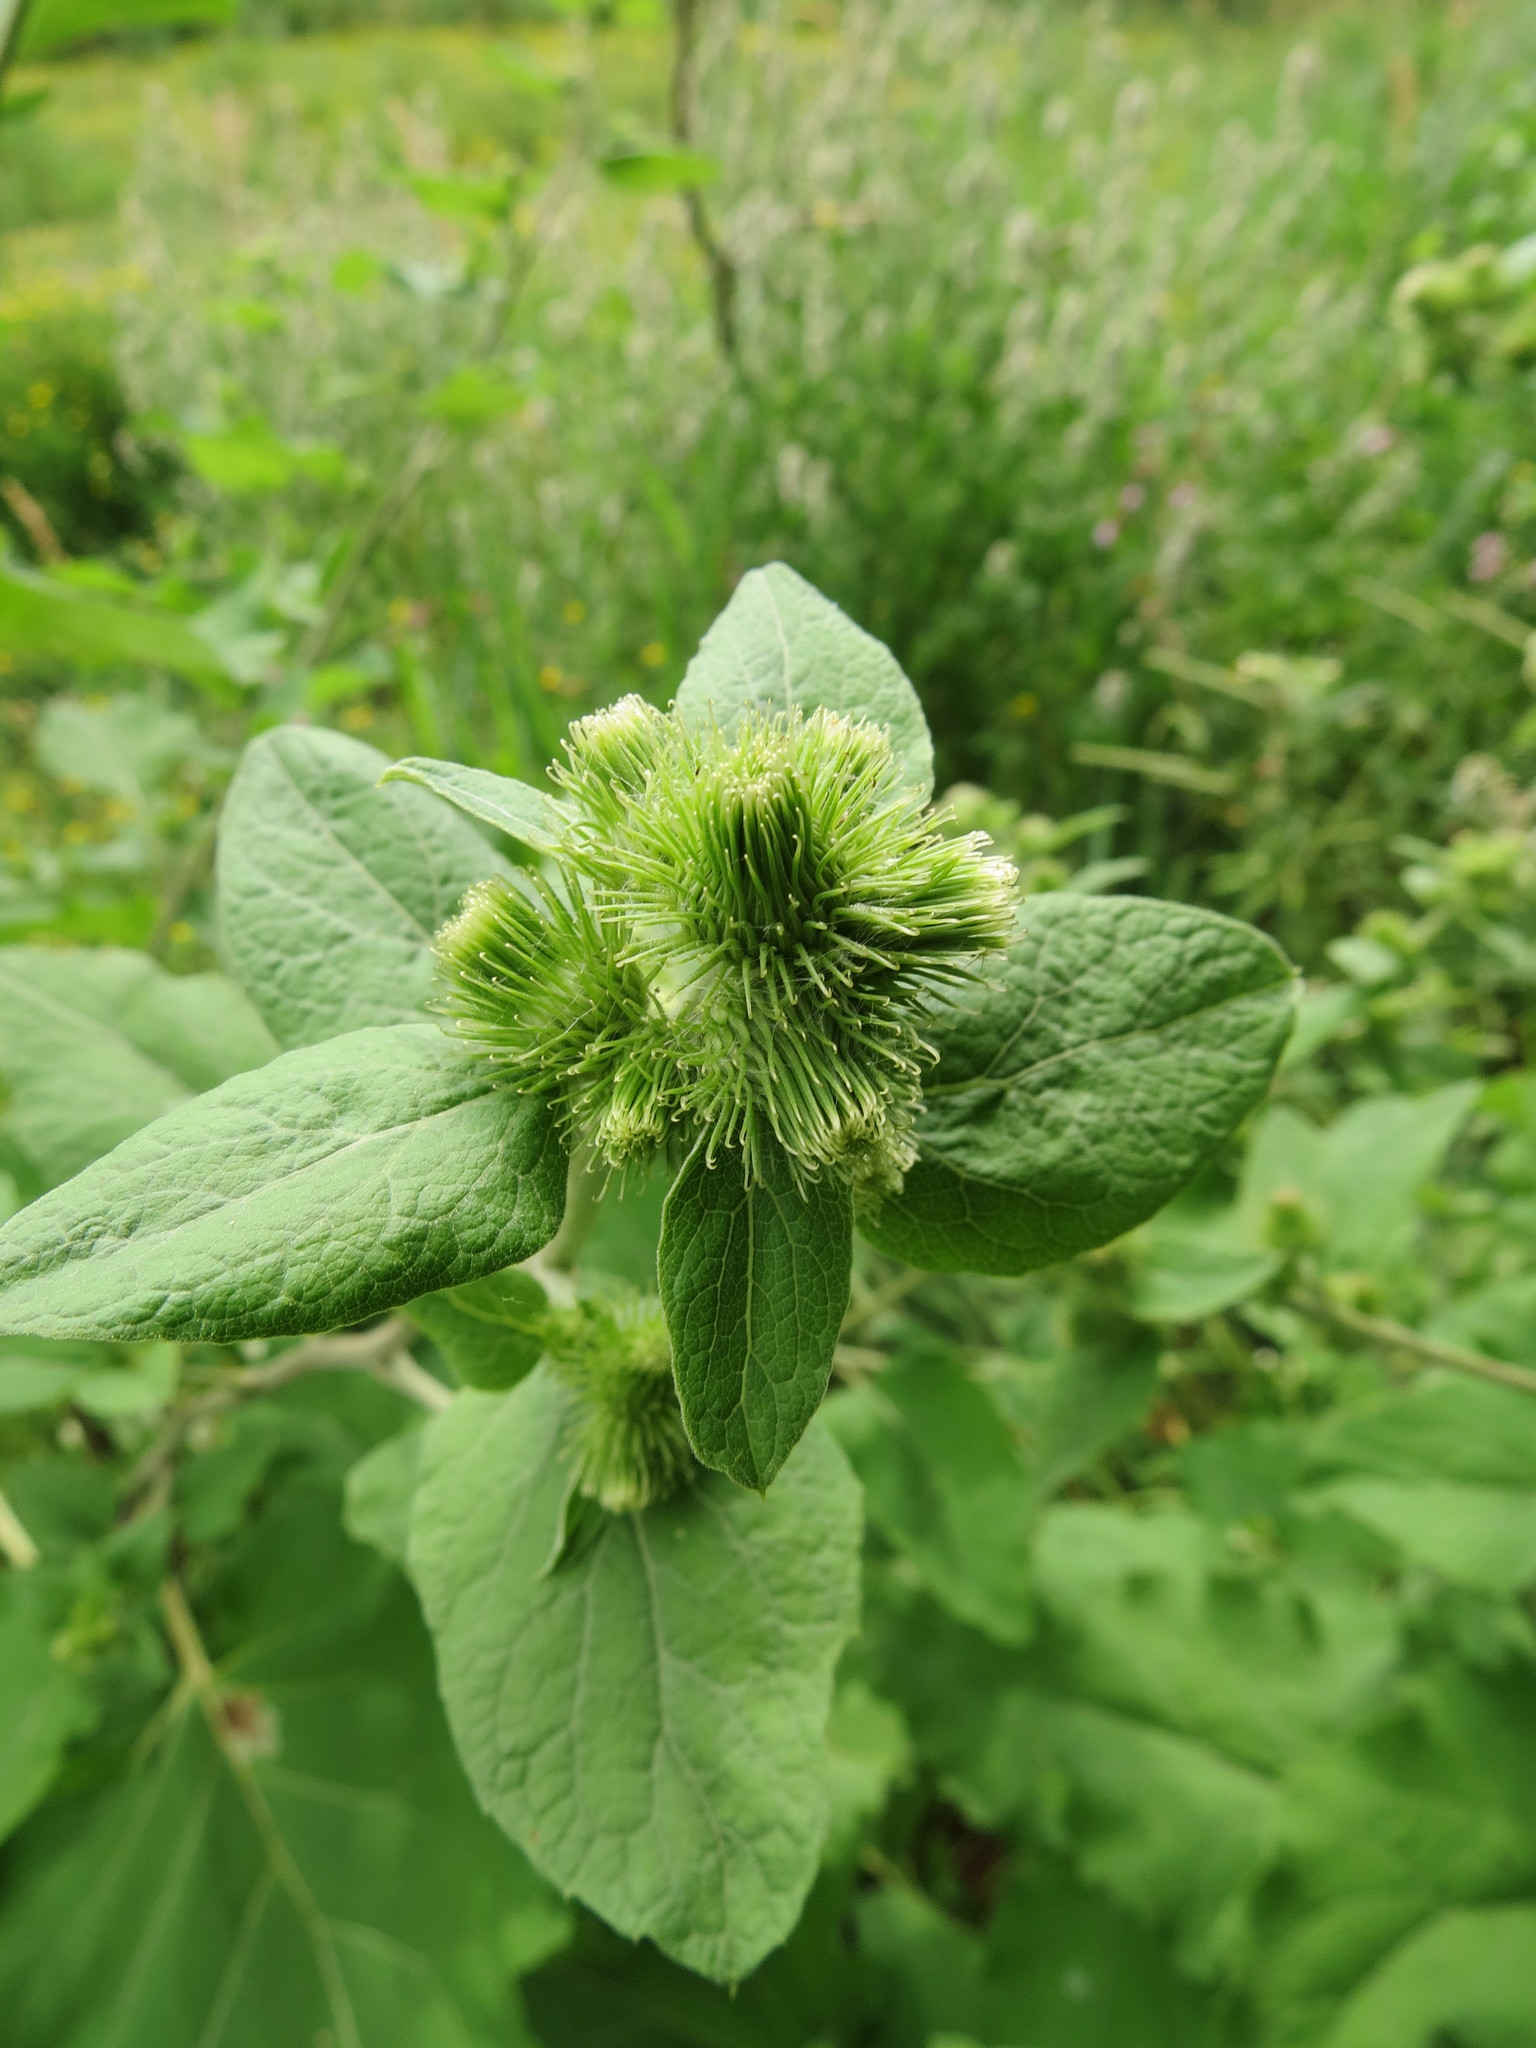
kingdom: Plantae
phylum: Tracheophyta
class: Magnoliopsida
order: Asterales
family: Asteraceae
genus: Arctium
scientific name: Arctium minus
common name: Lesser burdock
